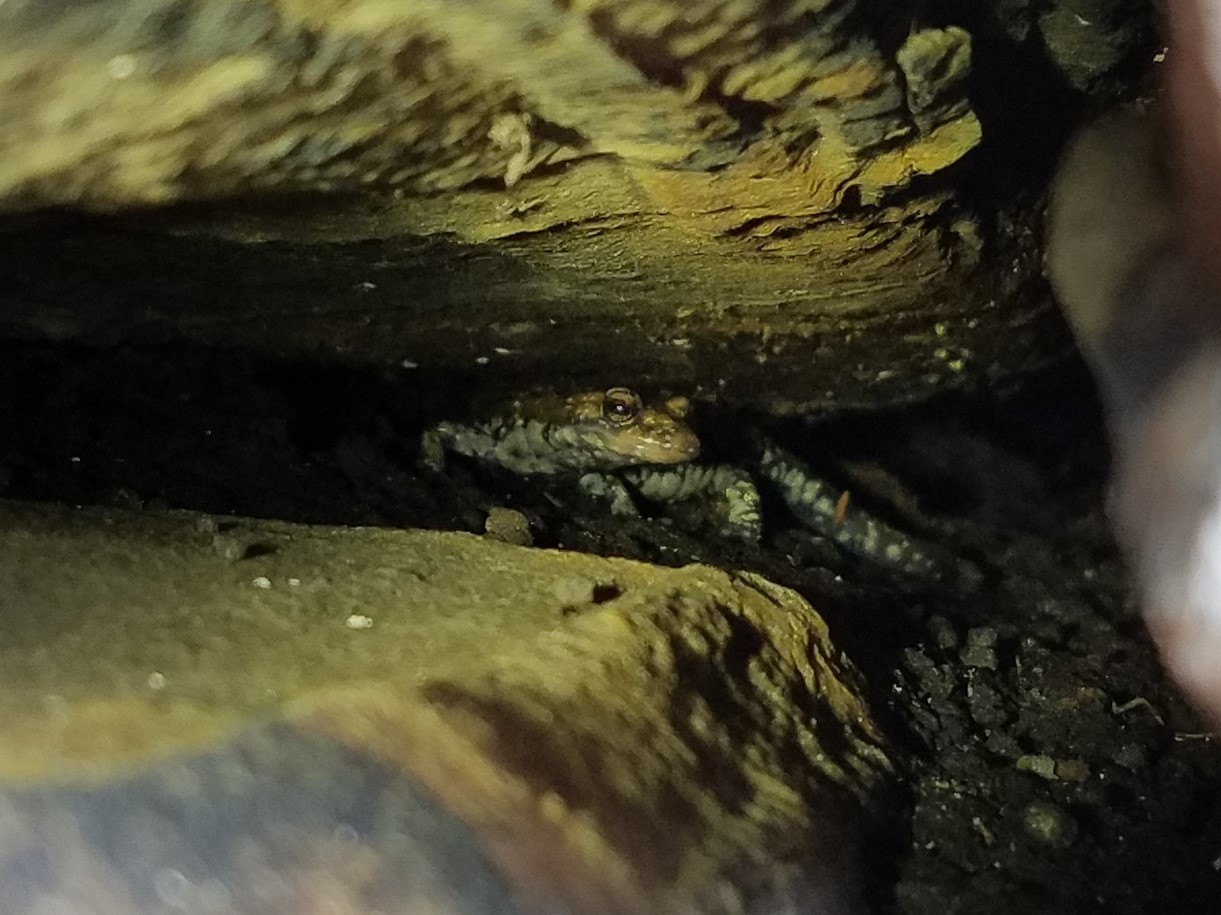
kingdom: Animalia
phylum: Chordata
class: Amphibia
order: Caudata
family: Plethodontidae
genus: Plethodon
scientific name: Plethodon petraeus
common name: Pigeon mountain salamander
